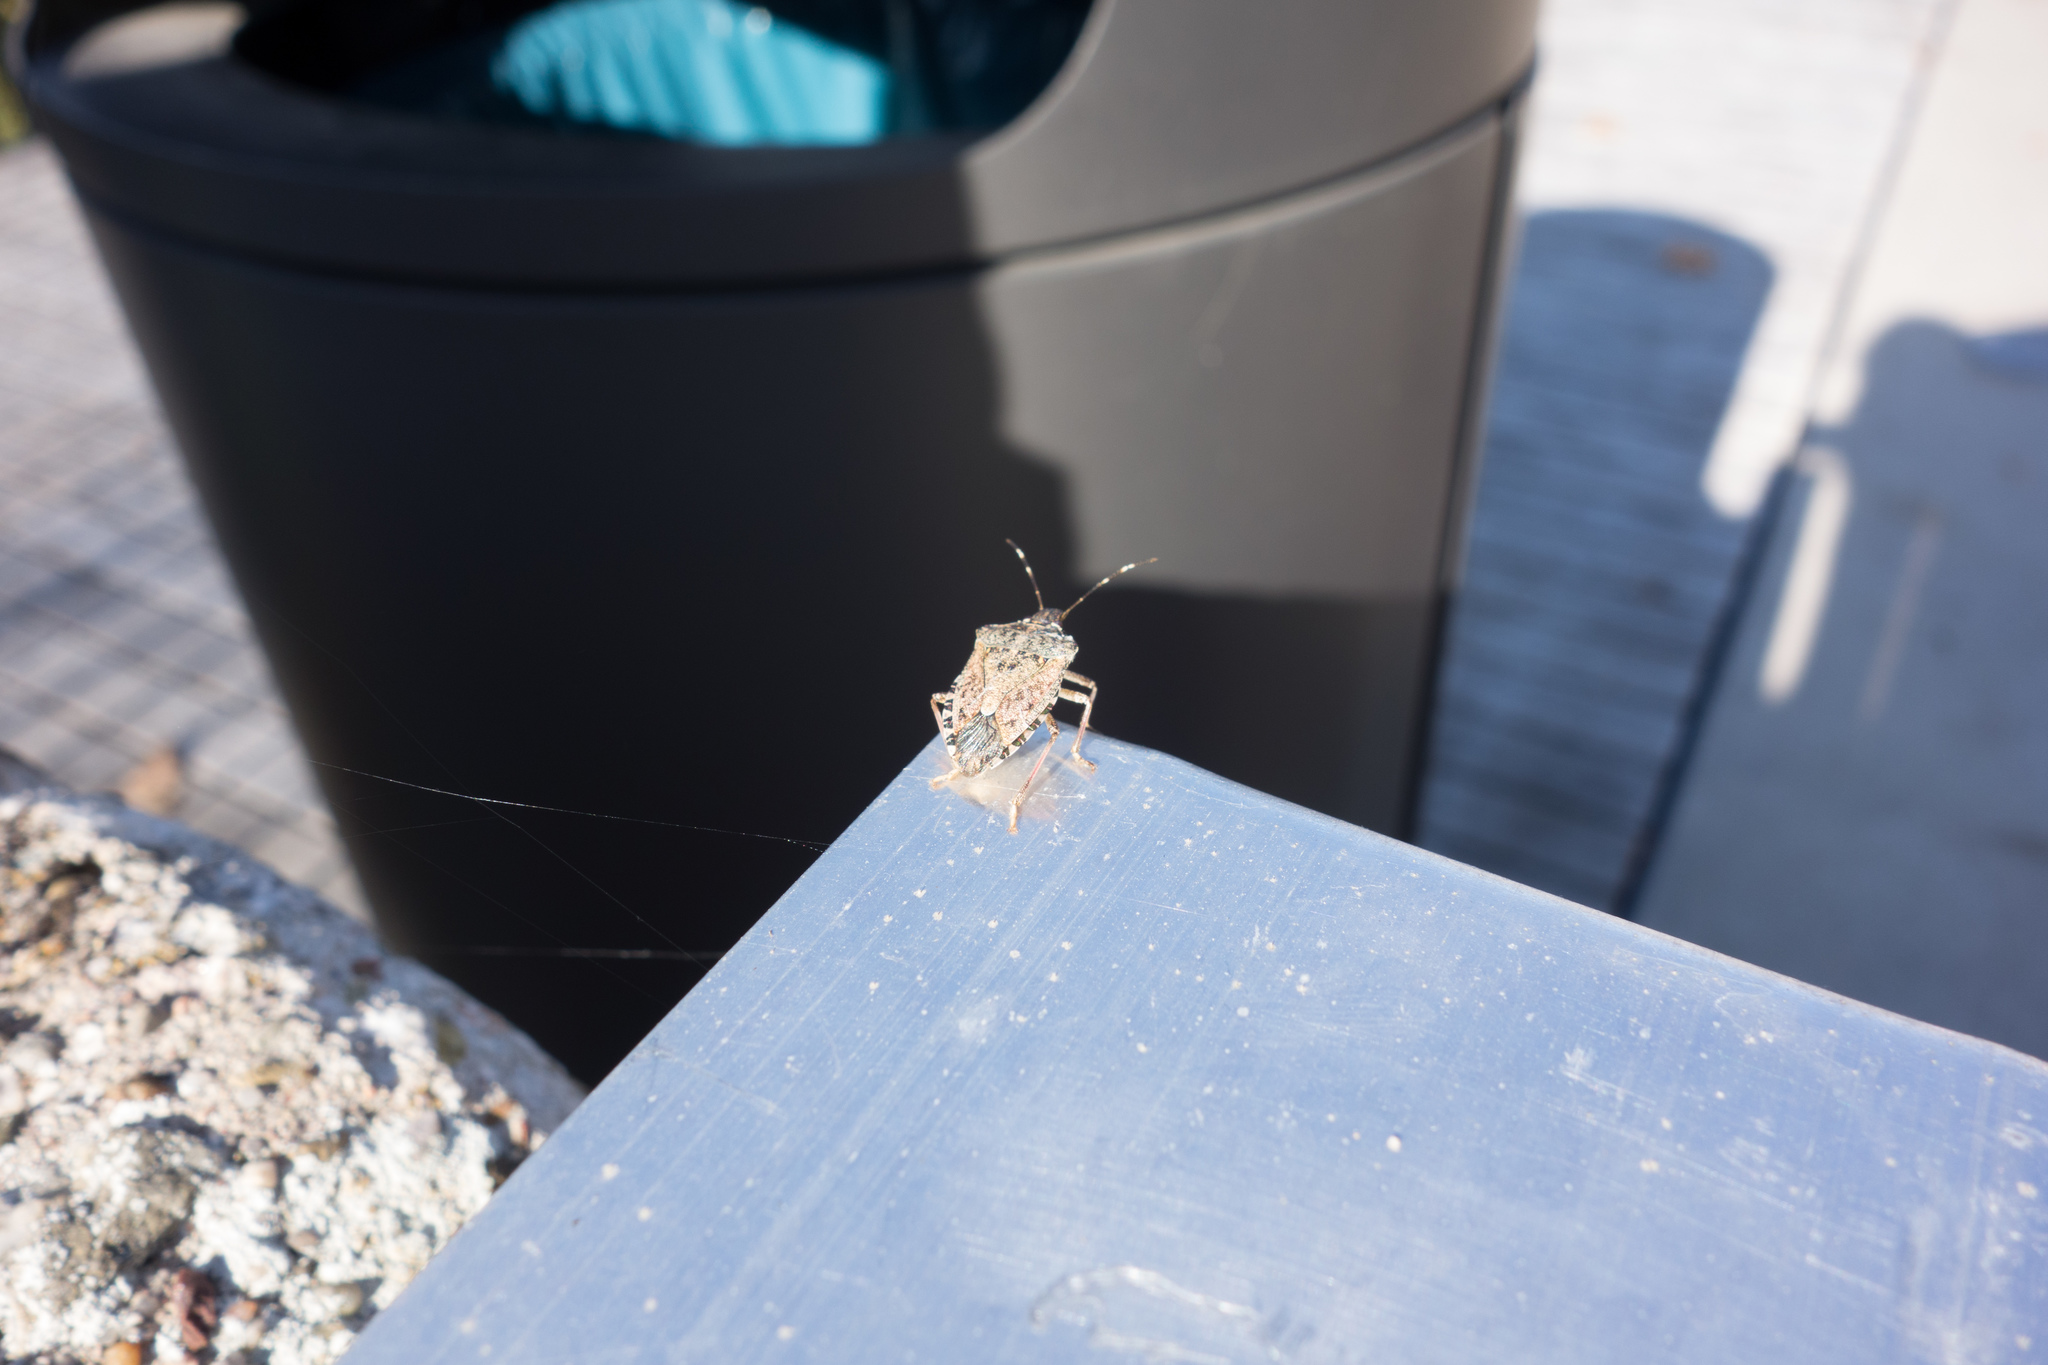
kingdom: Animalia
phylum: Arthropoda
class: Insecta
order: Hemiptera
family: Pentatomidae
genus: Halyomorpha
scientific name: Halyomorpha halys
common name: Brown marmorated stink bug
